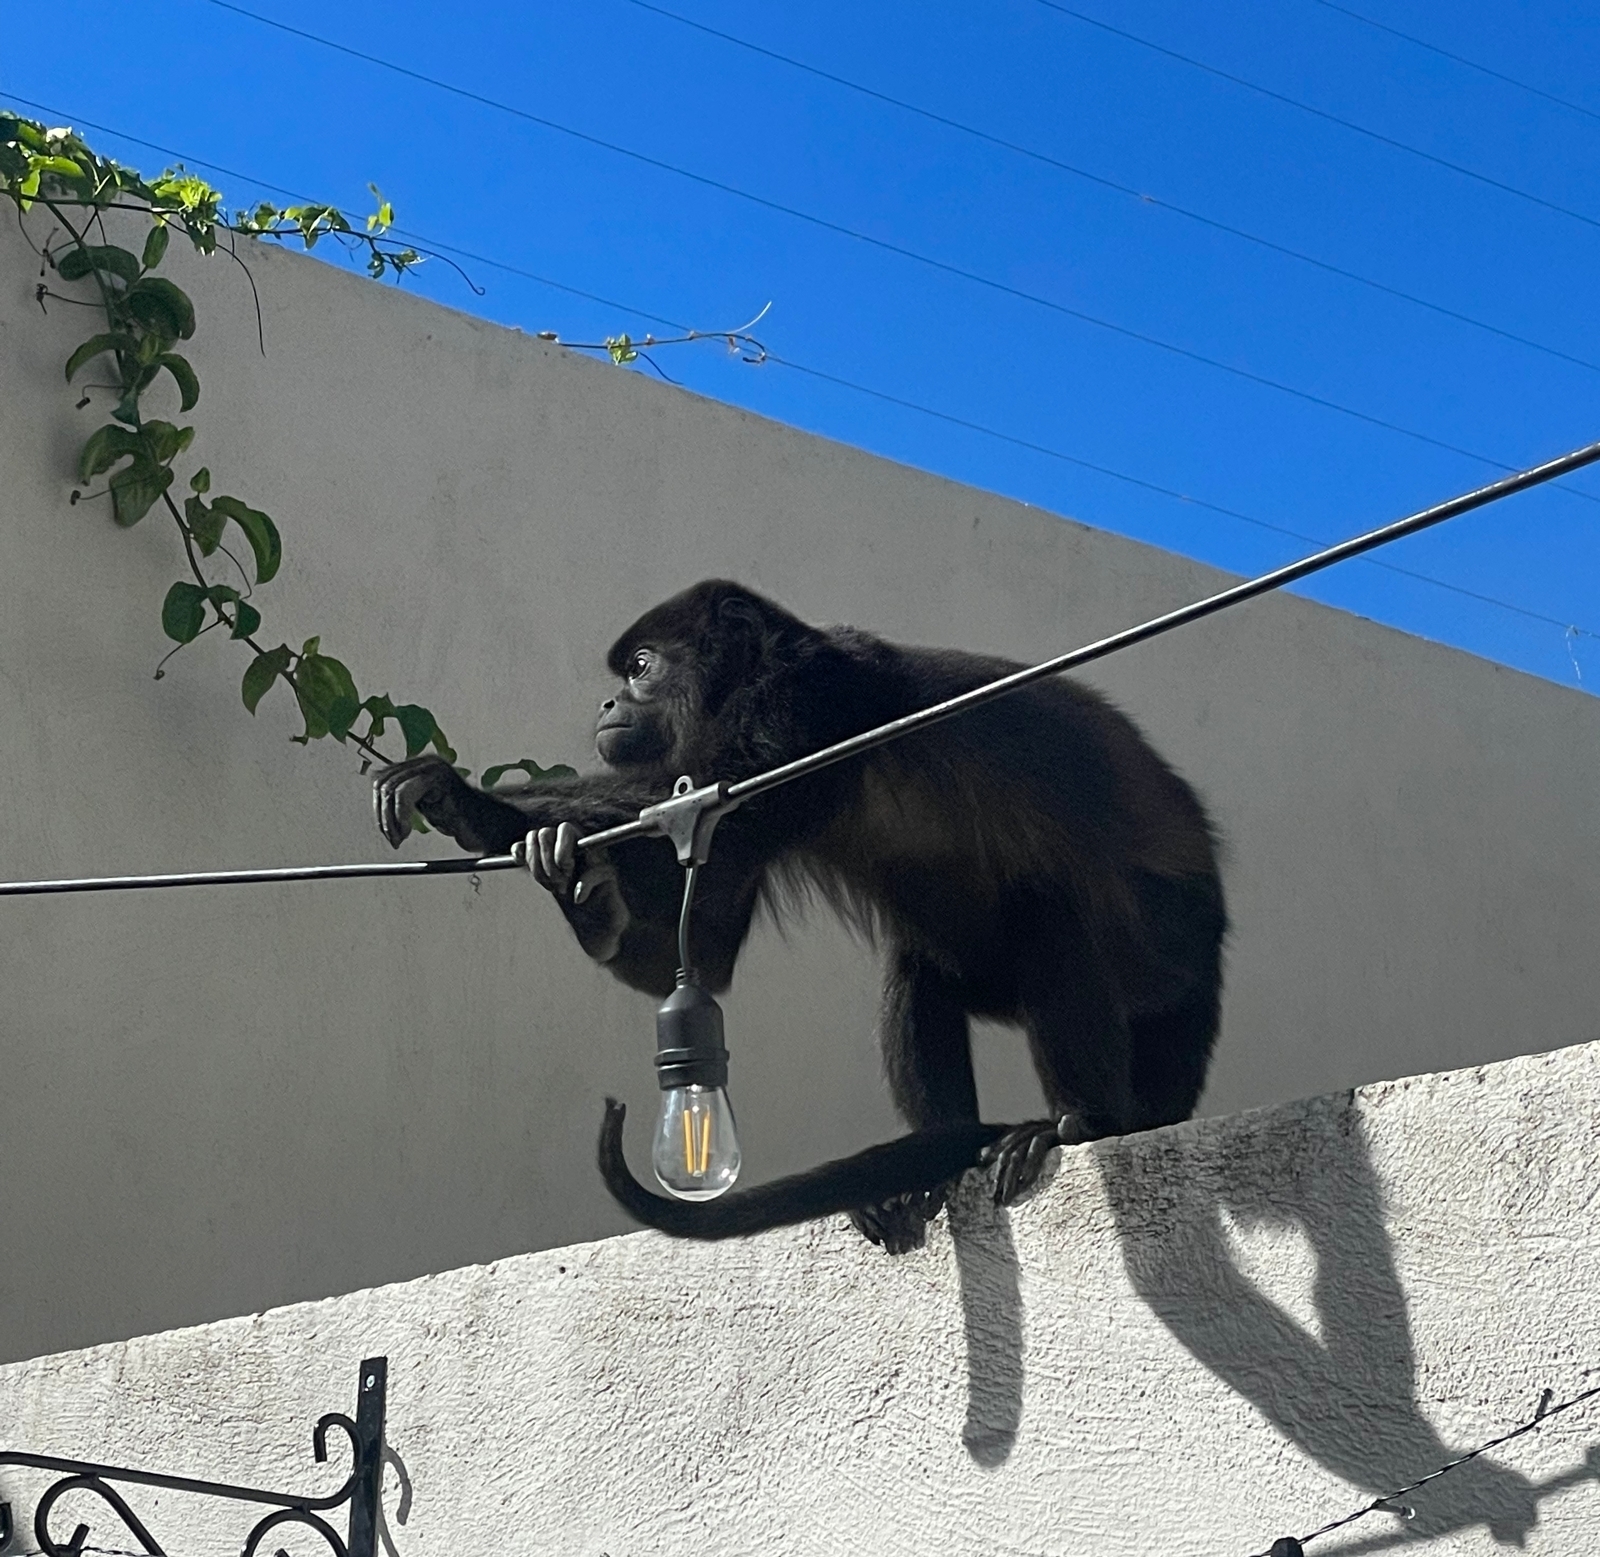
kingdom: Animalia
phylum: Chordata
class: Mammalia
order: Primates
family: Atelidae
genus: Alouatta
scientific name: Alouatta palliata
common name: Mantled howler
